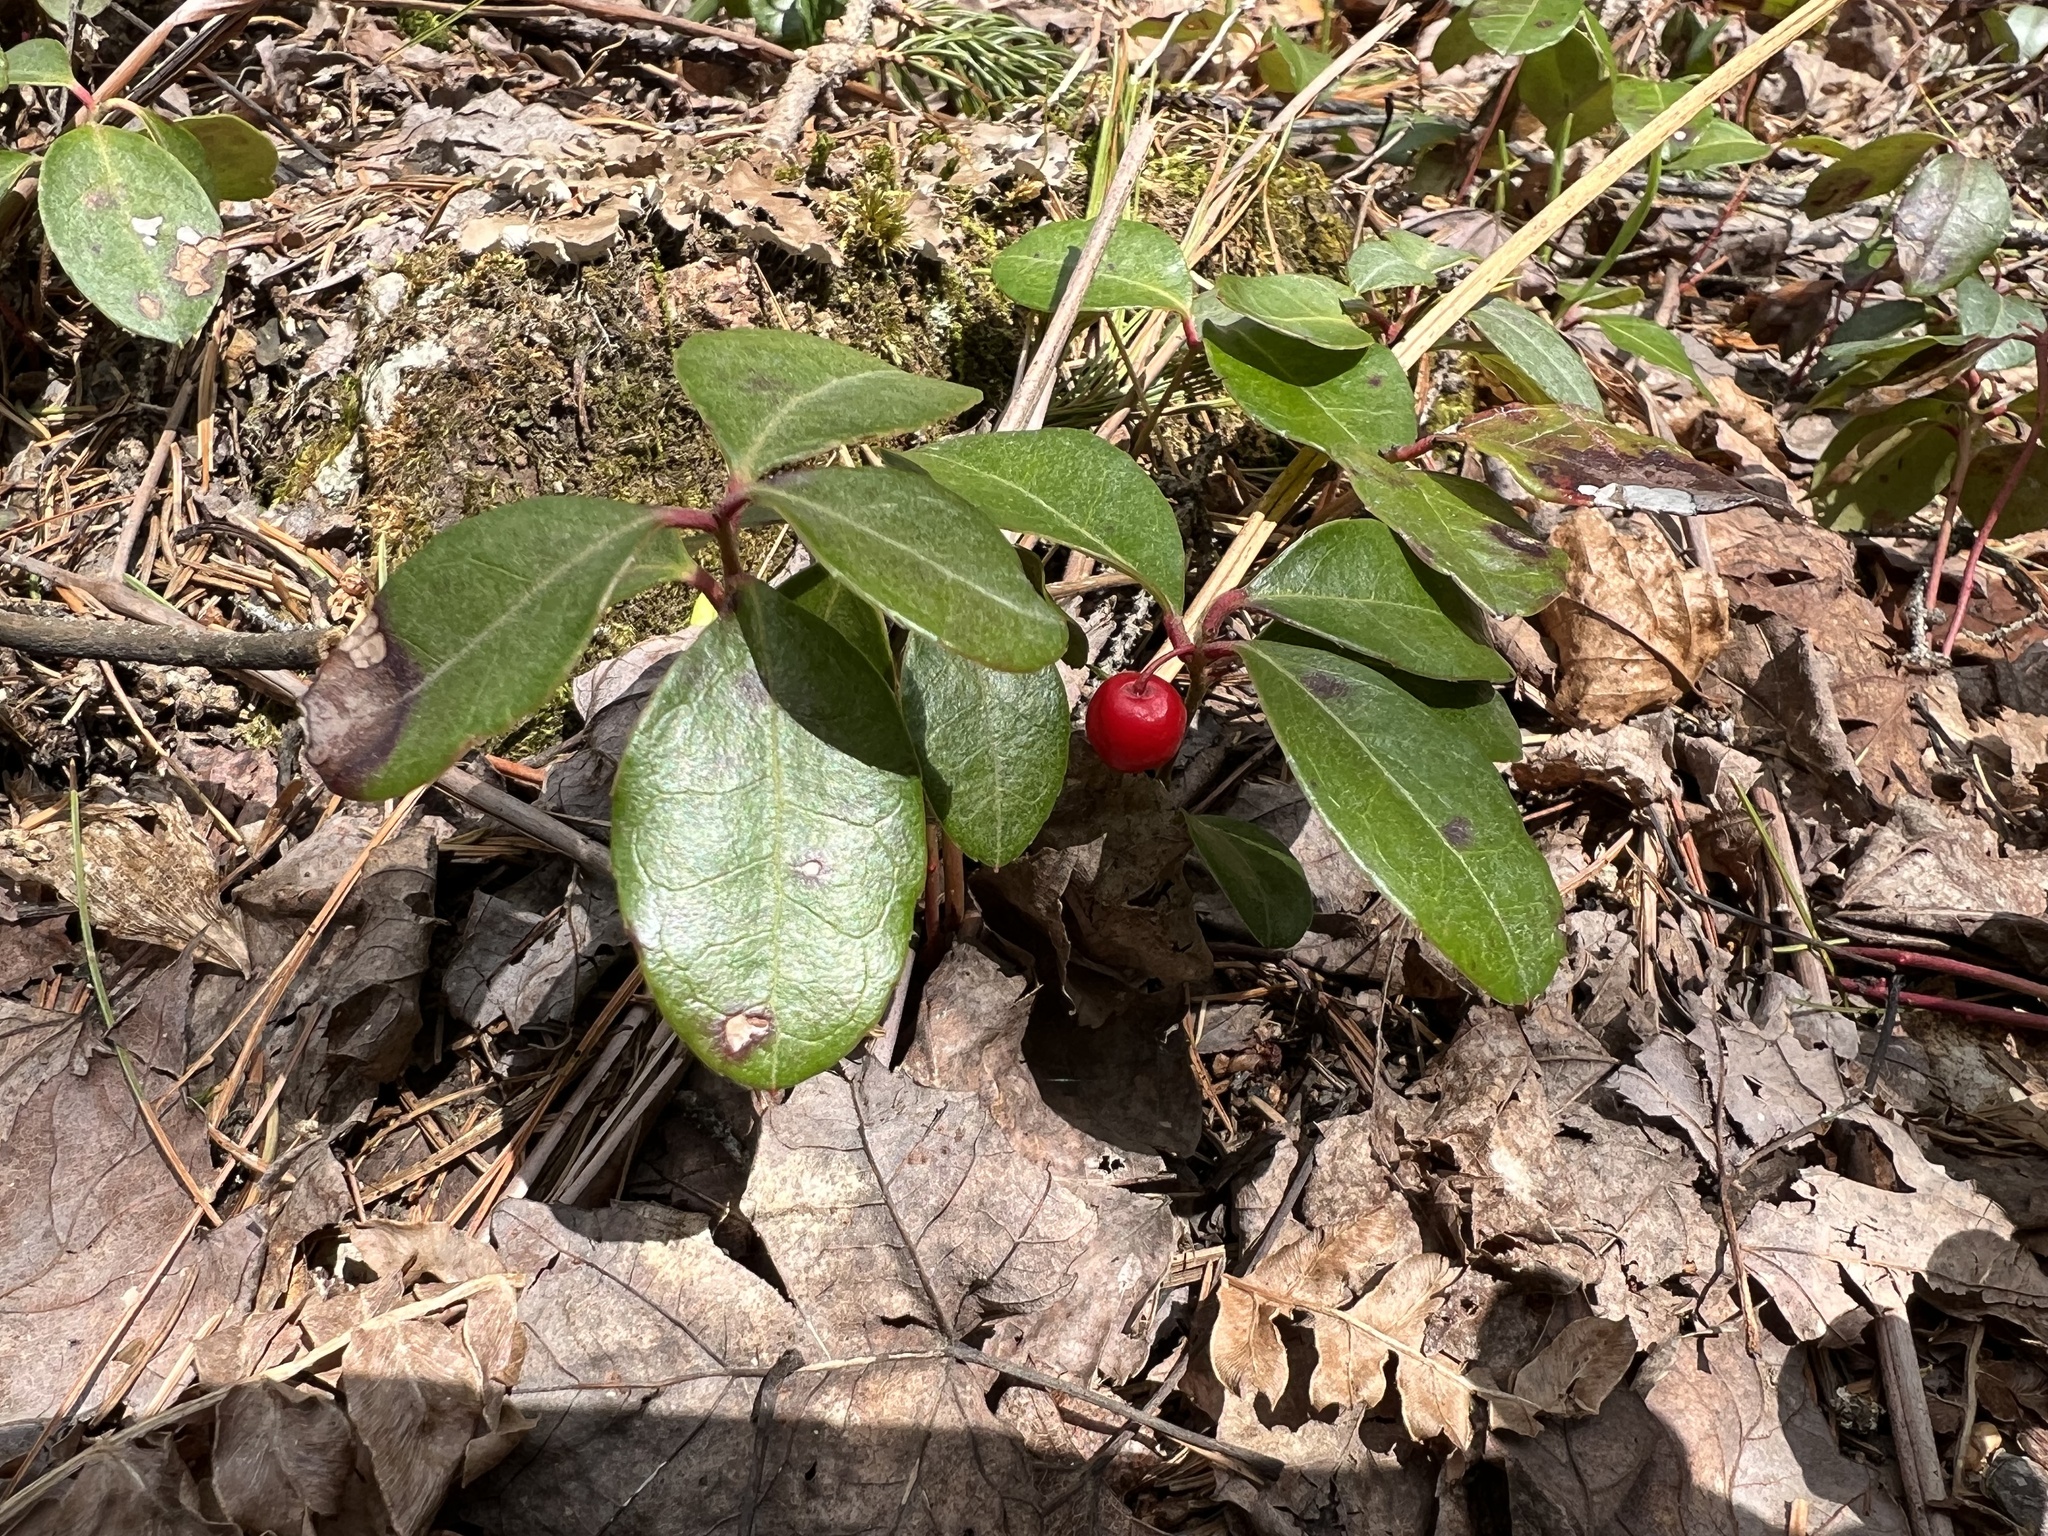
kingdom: Plantae
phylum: Tracheophyta
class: Magnoliopsida
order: Ericales
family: Ericaceae
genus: Gaultheria
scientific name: Gaultheria procumbens
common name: Checkerberry
